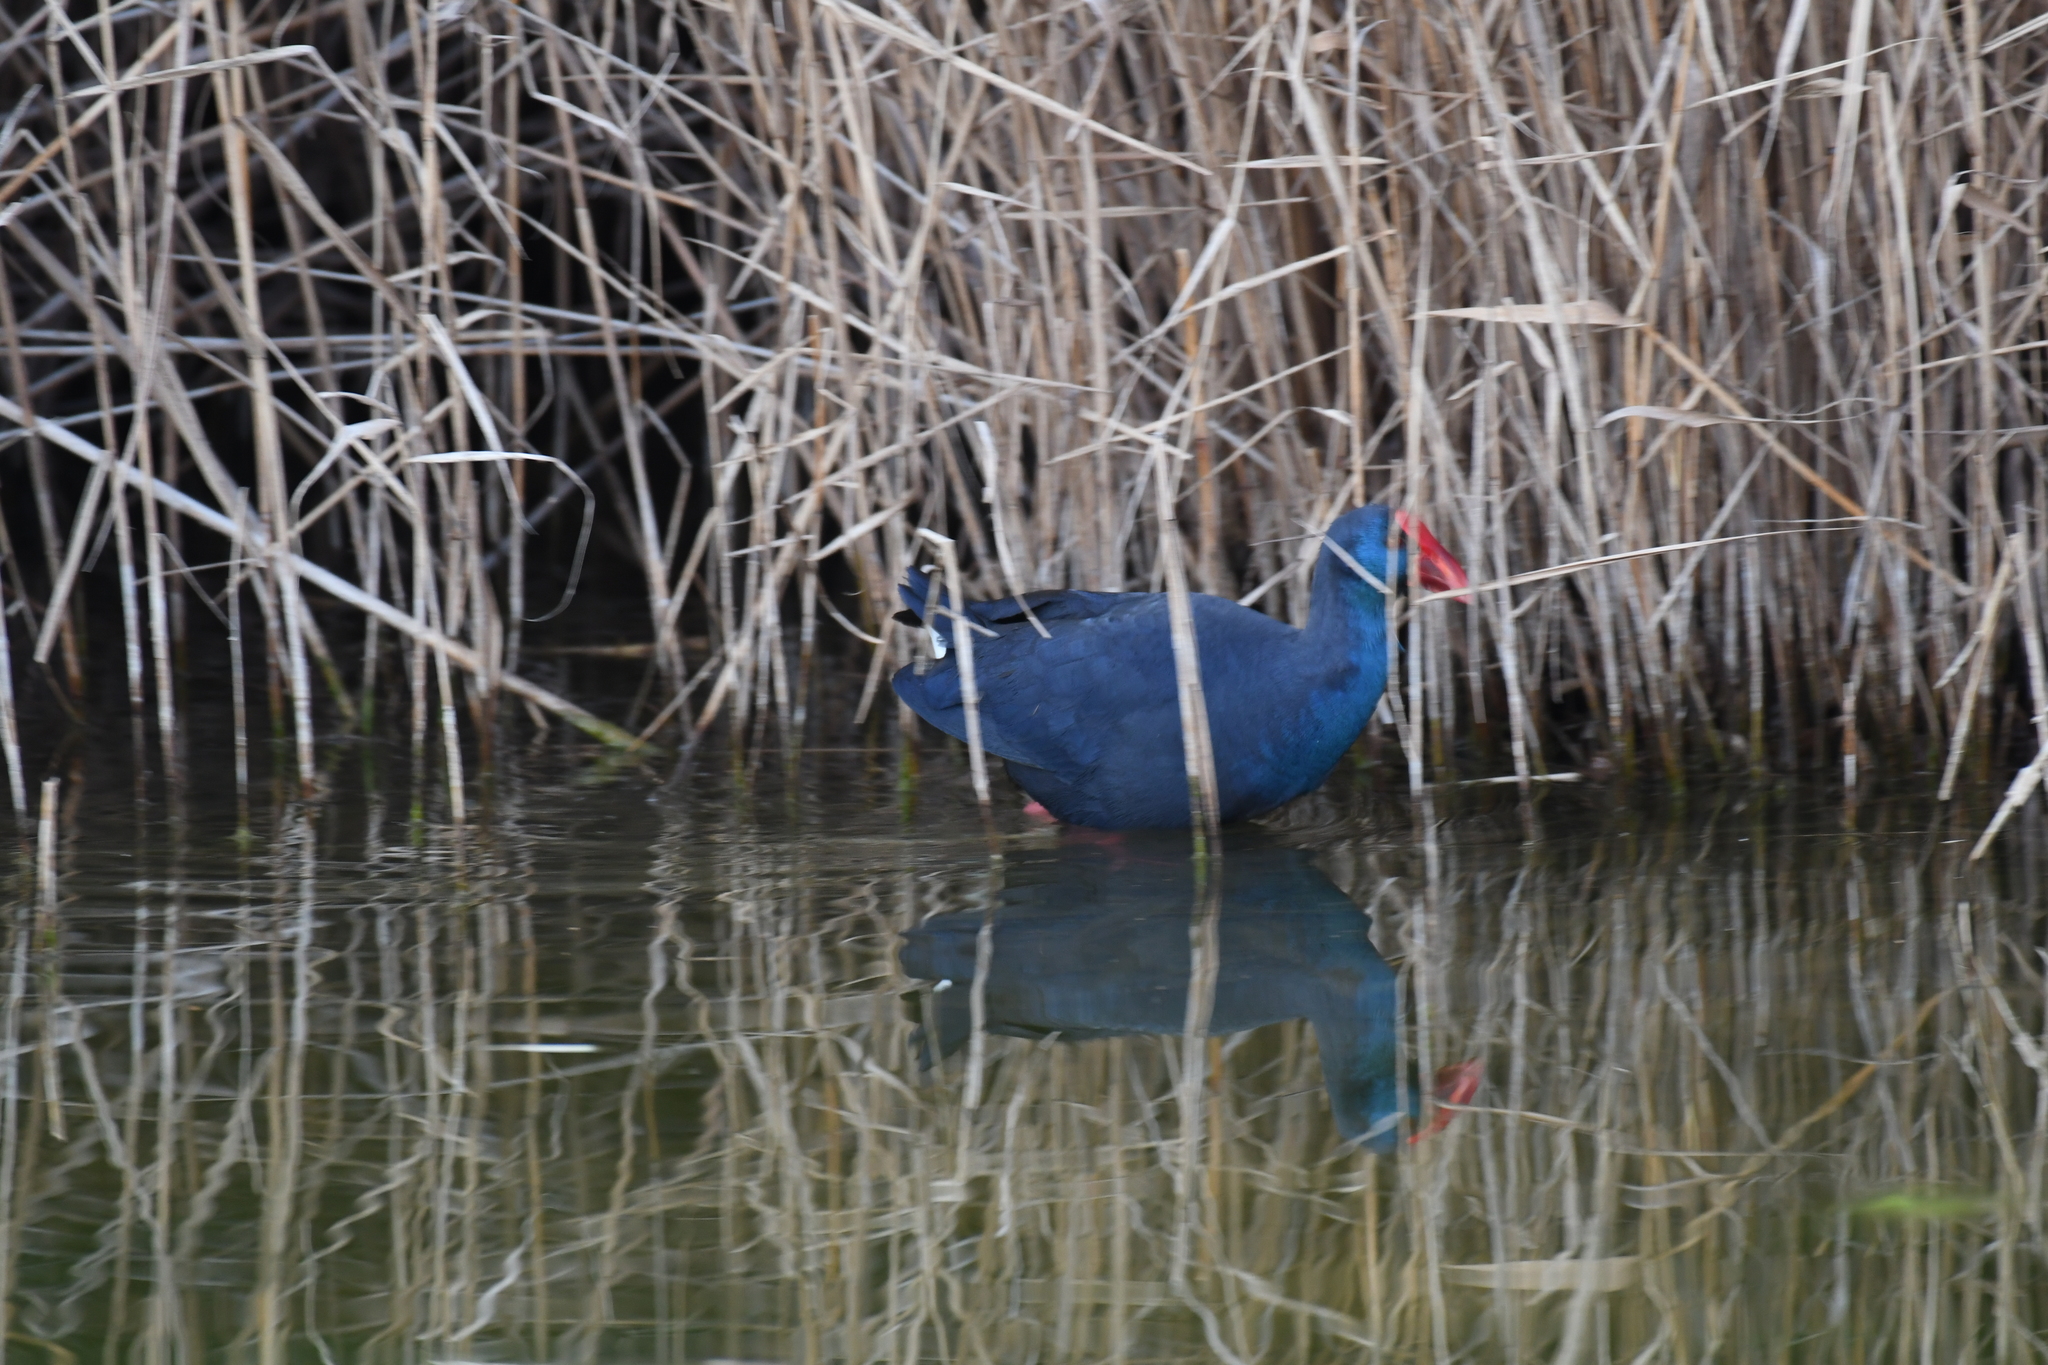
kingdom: Animalia
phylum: Chordata
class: Aves
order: Gruiformes
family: Rallidae
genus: Porphyrio
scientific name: Porphyrio porphyrio
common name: Purple swamphen
